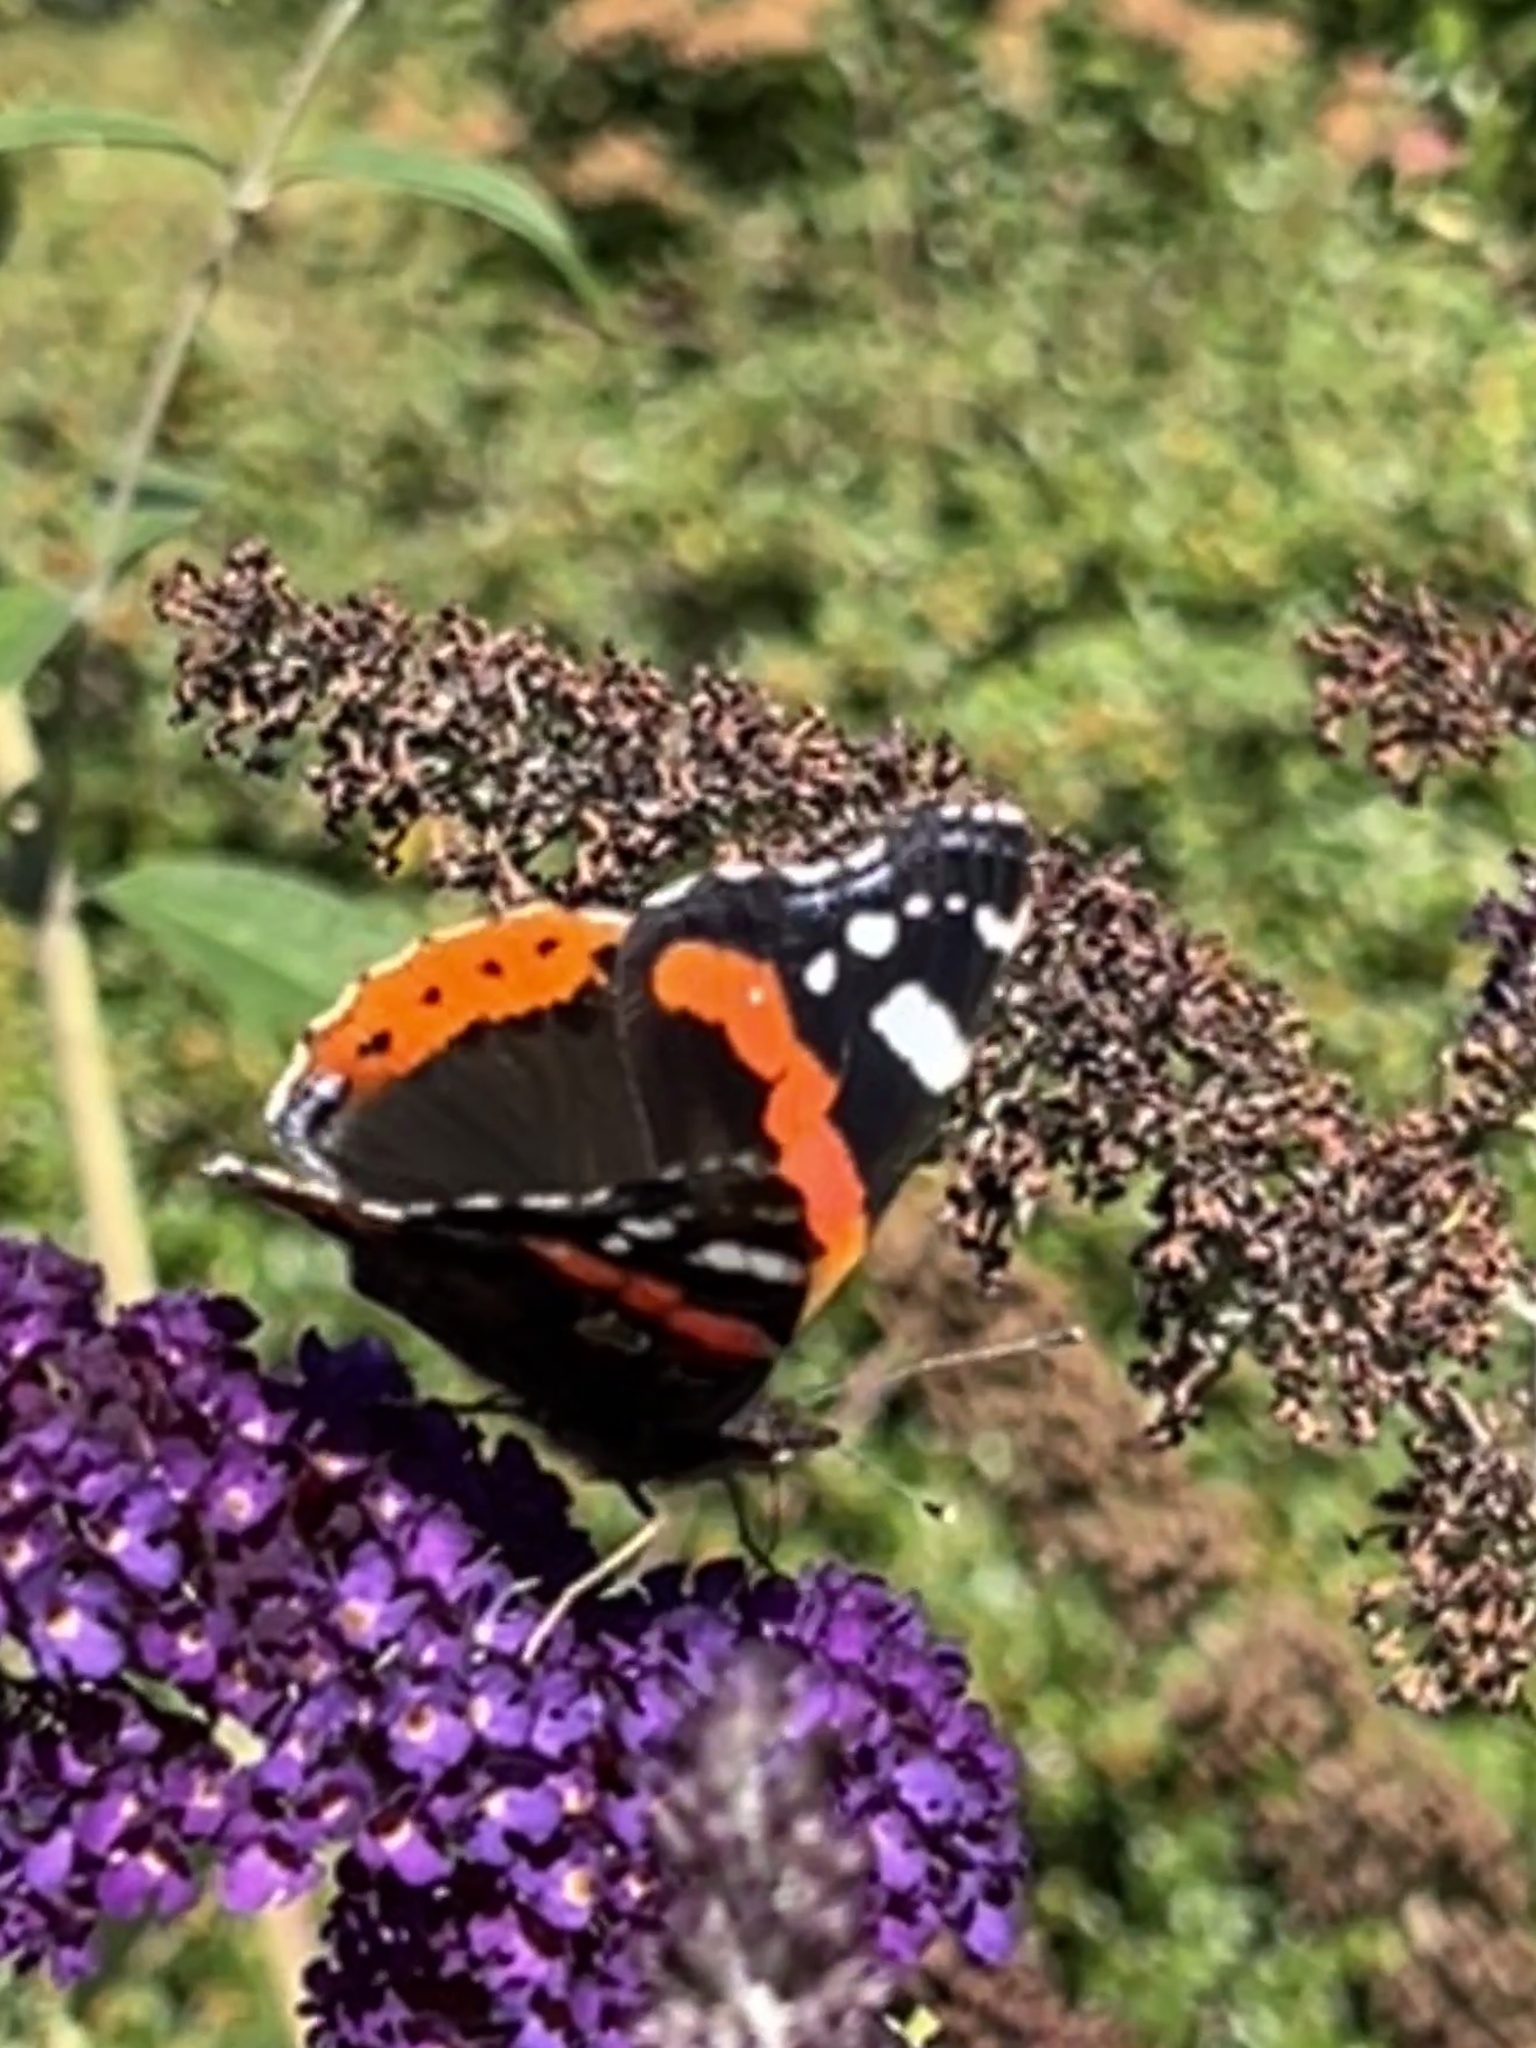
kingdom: Animalia
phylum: Arthropoda
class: Insecta
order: Lepidoptera
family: Nymphalidae
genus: Vanessa
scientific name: Vanessa atalanta
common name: Red admiral
